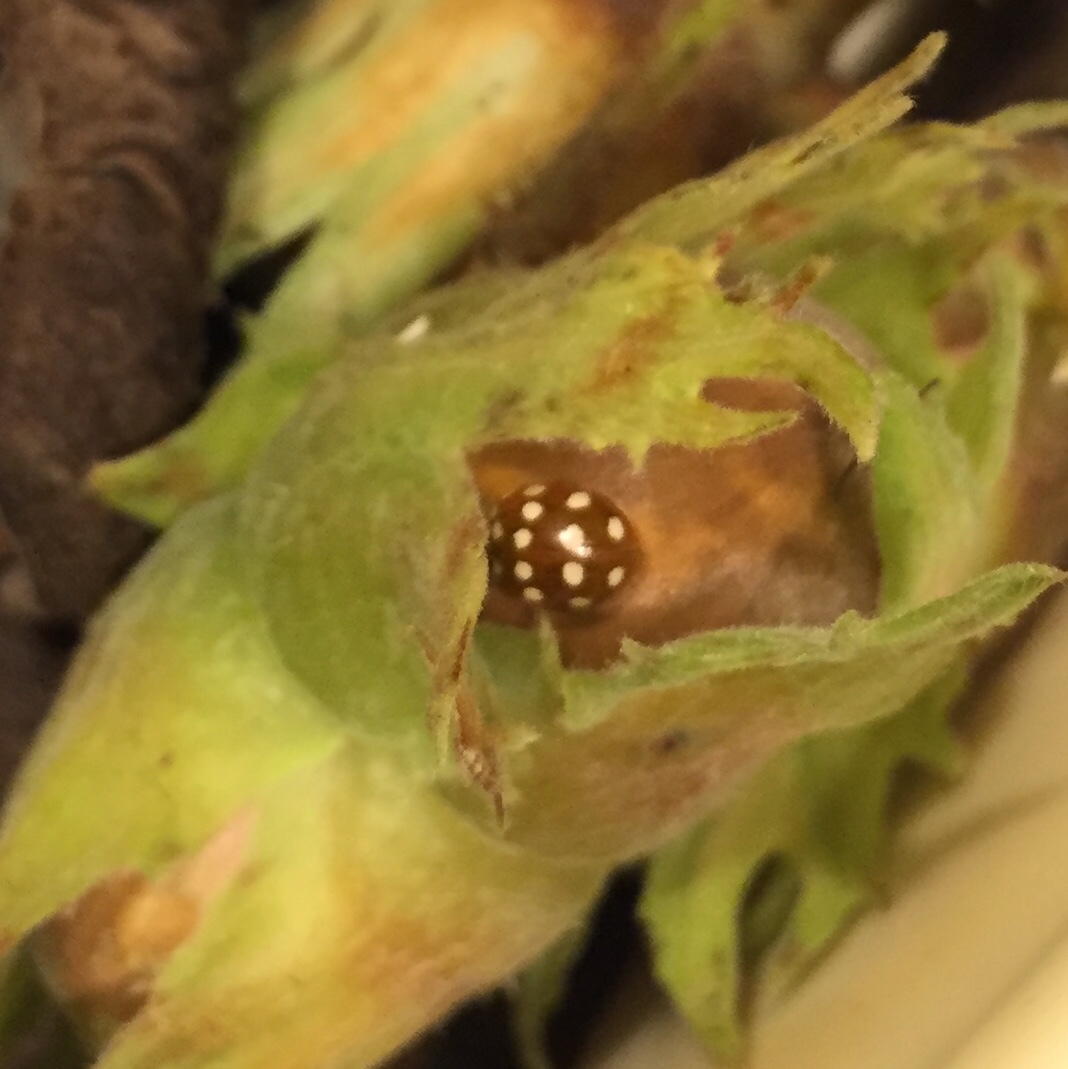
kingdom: Animalia
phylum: Arthropoda
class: Insecta
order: Coleoptera
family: Coccinellidae
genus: Calvia
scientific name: Calvia quatuordecimguttata
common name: Cream-spot ladybird
